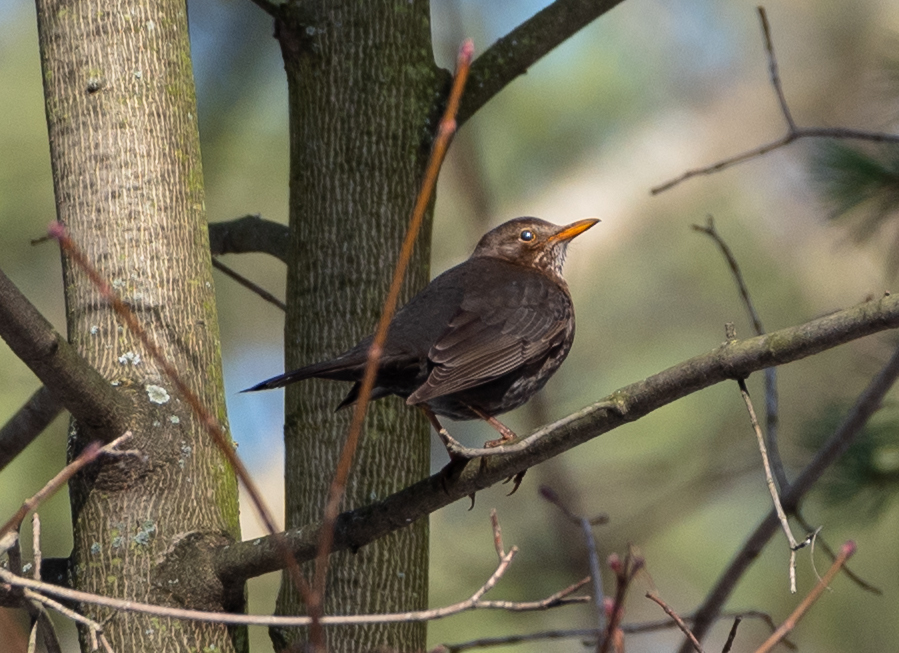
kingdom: Animalia
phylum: Chordata
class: Aves
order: Passeriformes
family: Turdidae
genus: Turdus
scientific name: Turdus merula
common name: Common blackbird
